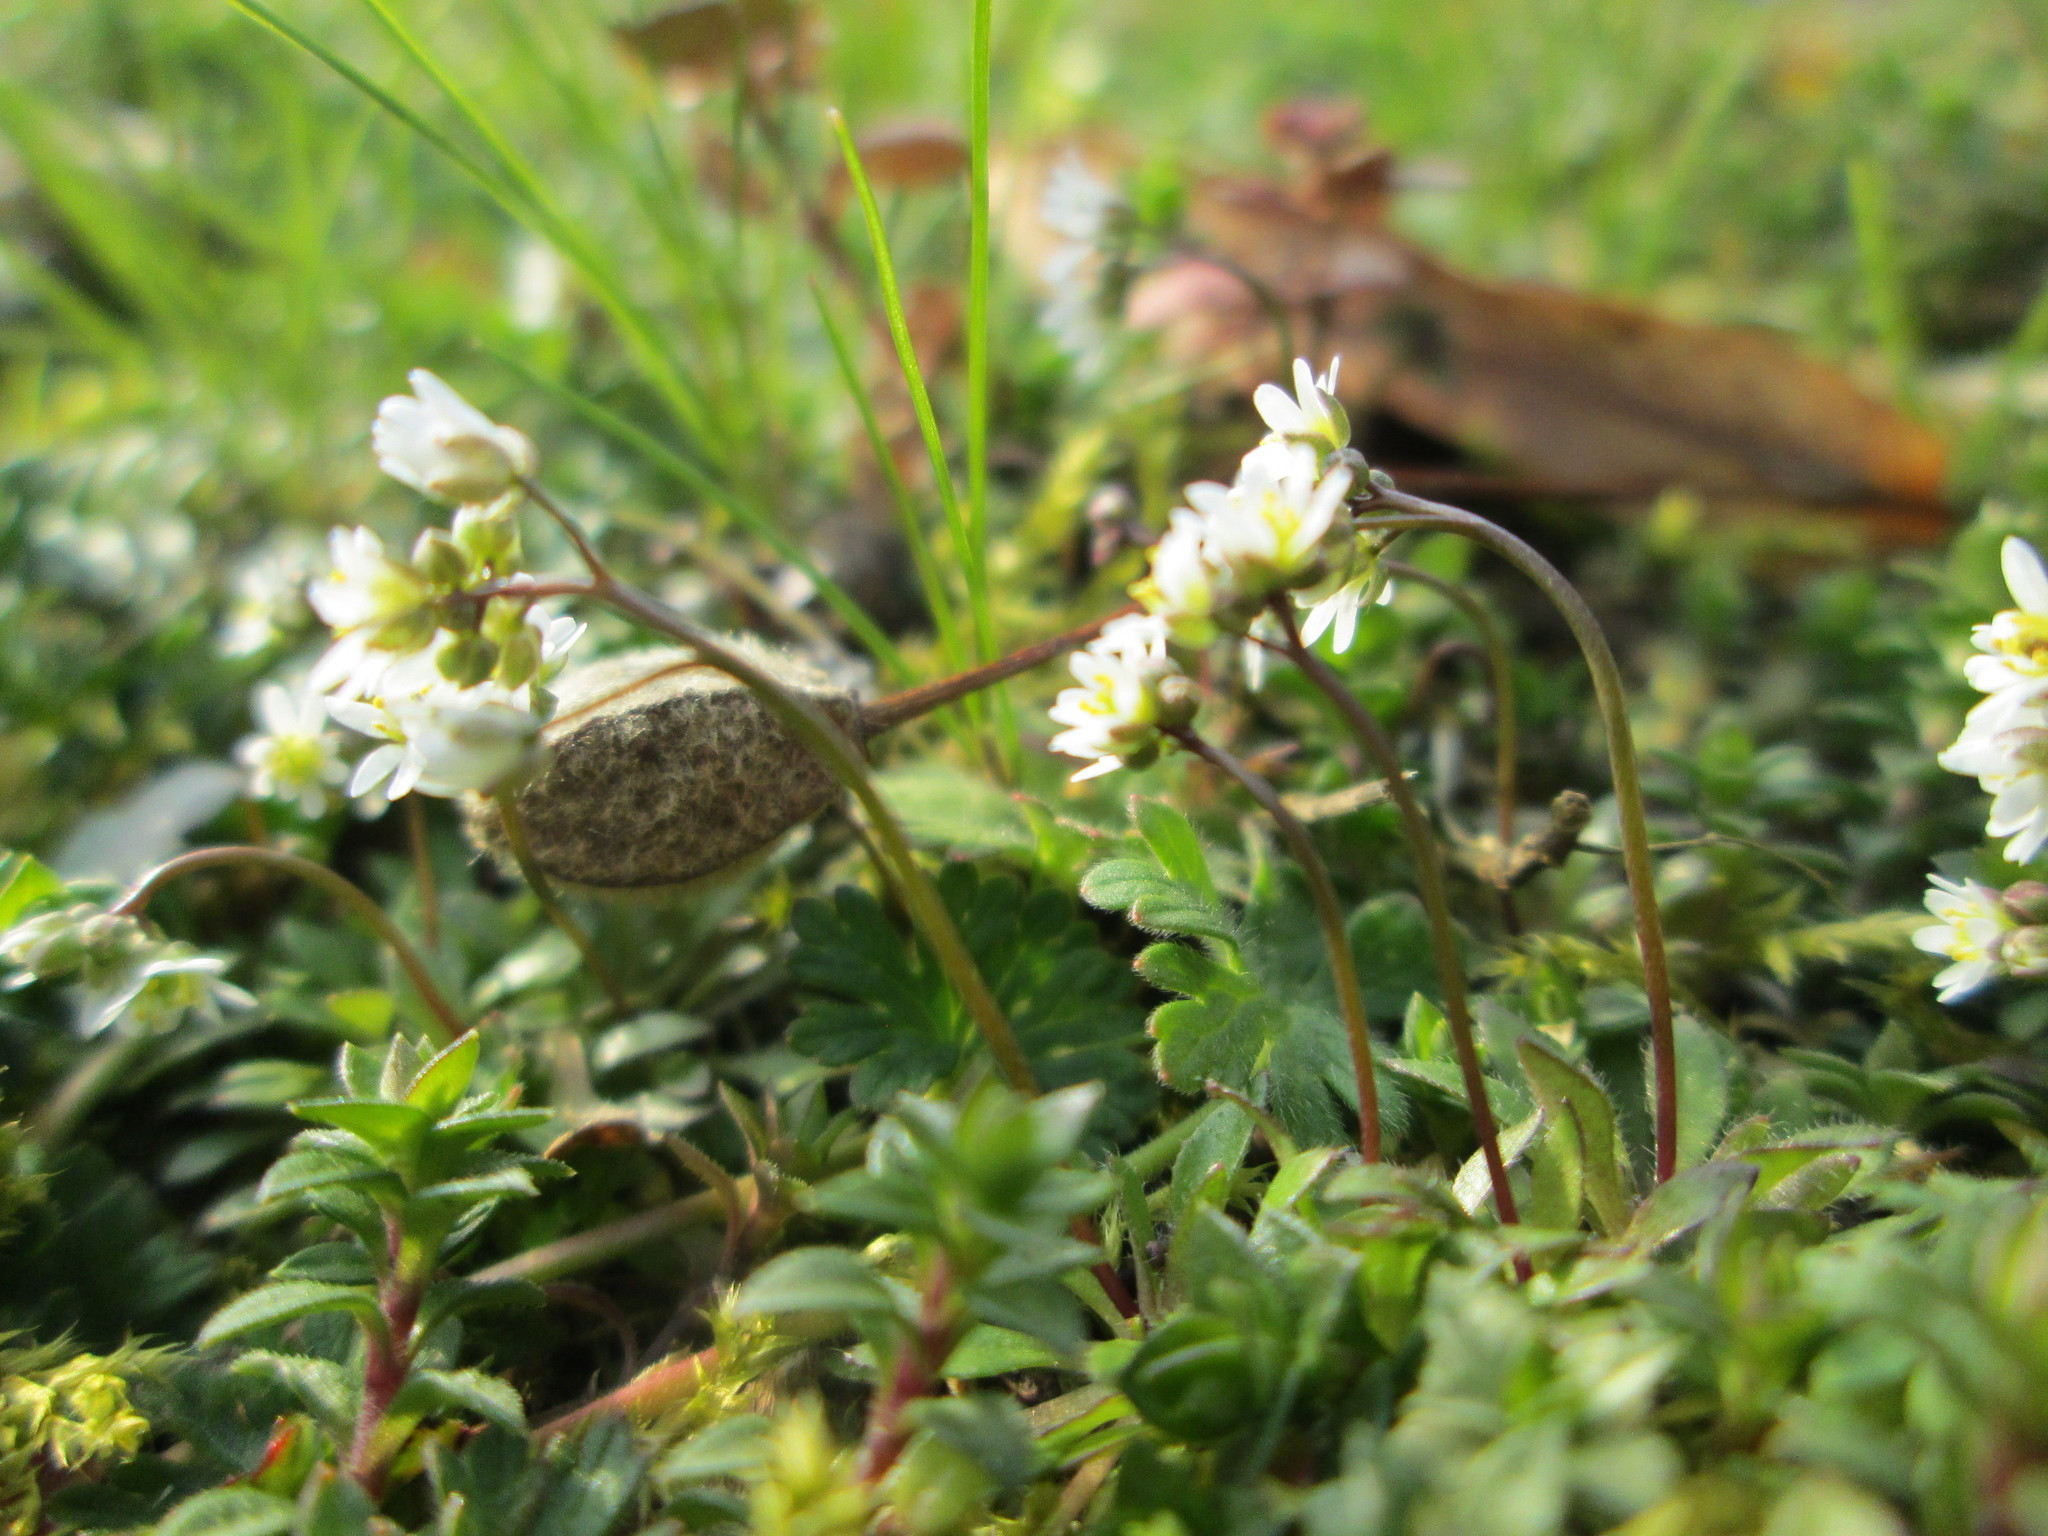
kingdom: Plantae
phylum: Tracheophyta
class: Magnoliopsida
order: Brassicales
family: Brassicaceae
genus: Draba
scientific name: Draba verna
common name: Spring draba
